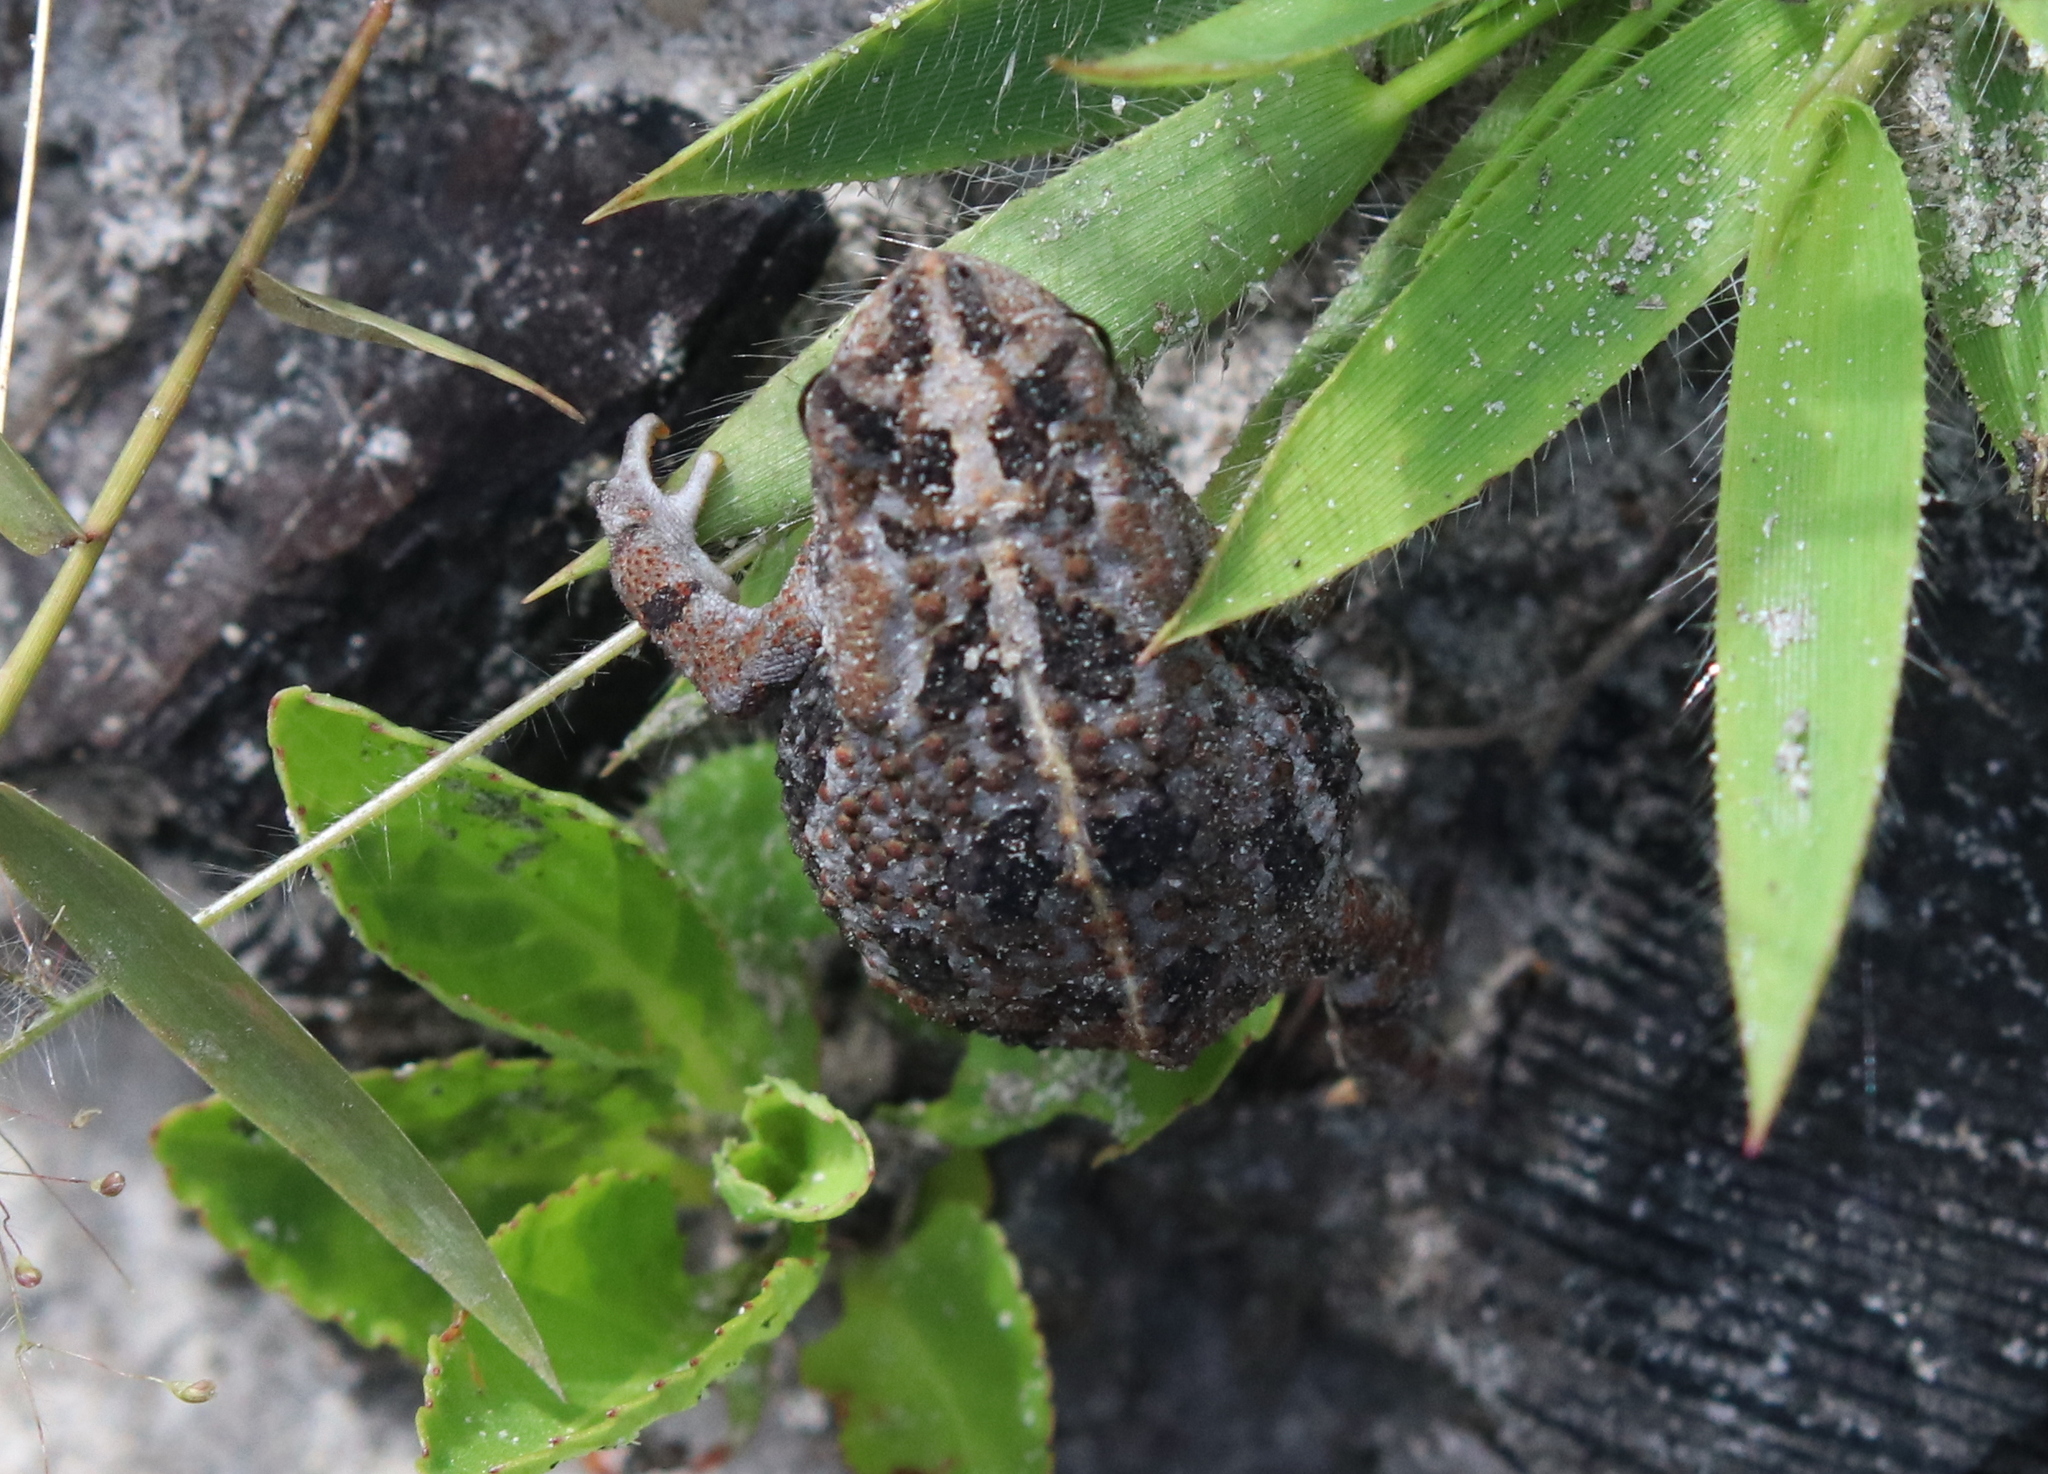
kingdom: Animalia
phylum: Chordata
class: Amphibia
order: Anura
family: Bufonidae
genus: Anaxyrus
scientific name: Anaxyrus quercicus
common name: Oak toad
